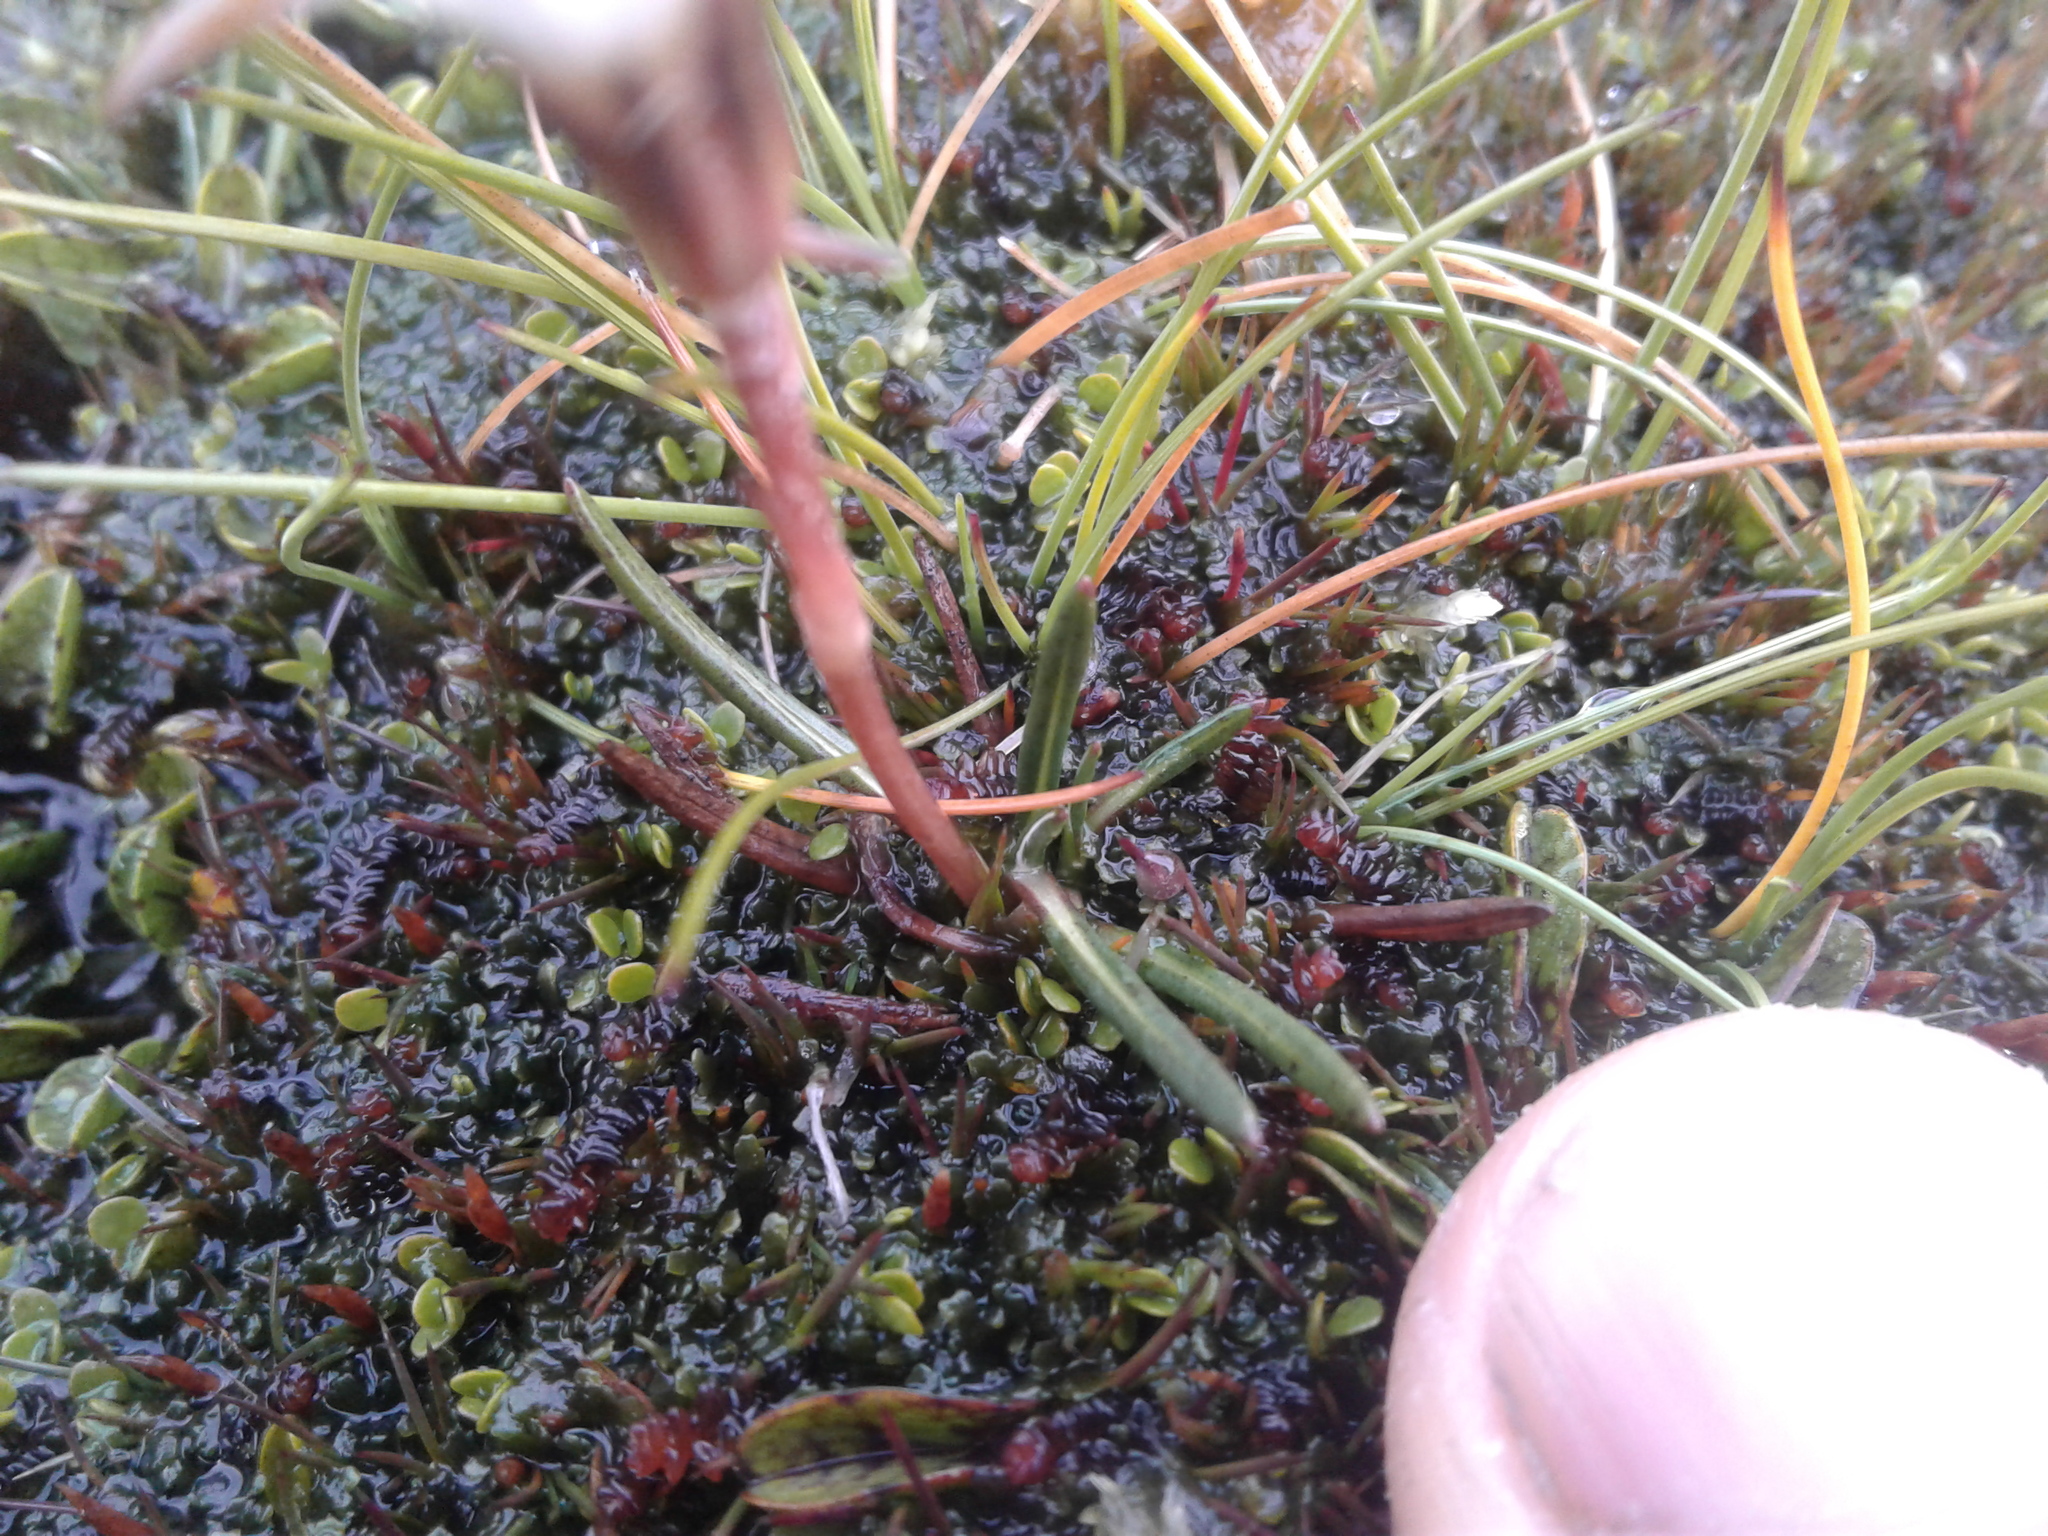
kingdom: Plantae
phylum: Tracheophyta
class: Magnoliopsida
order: Asterales
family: Asteraceae
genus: Celmisia
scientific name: Celmisia alpina
